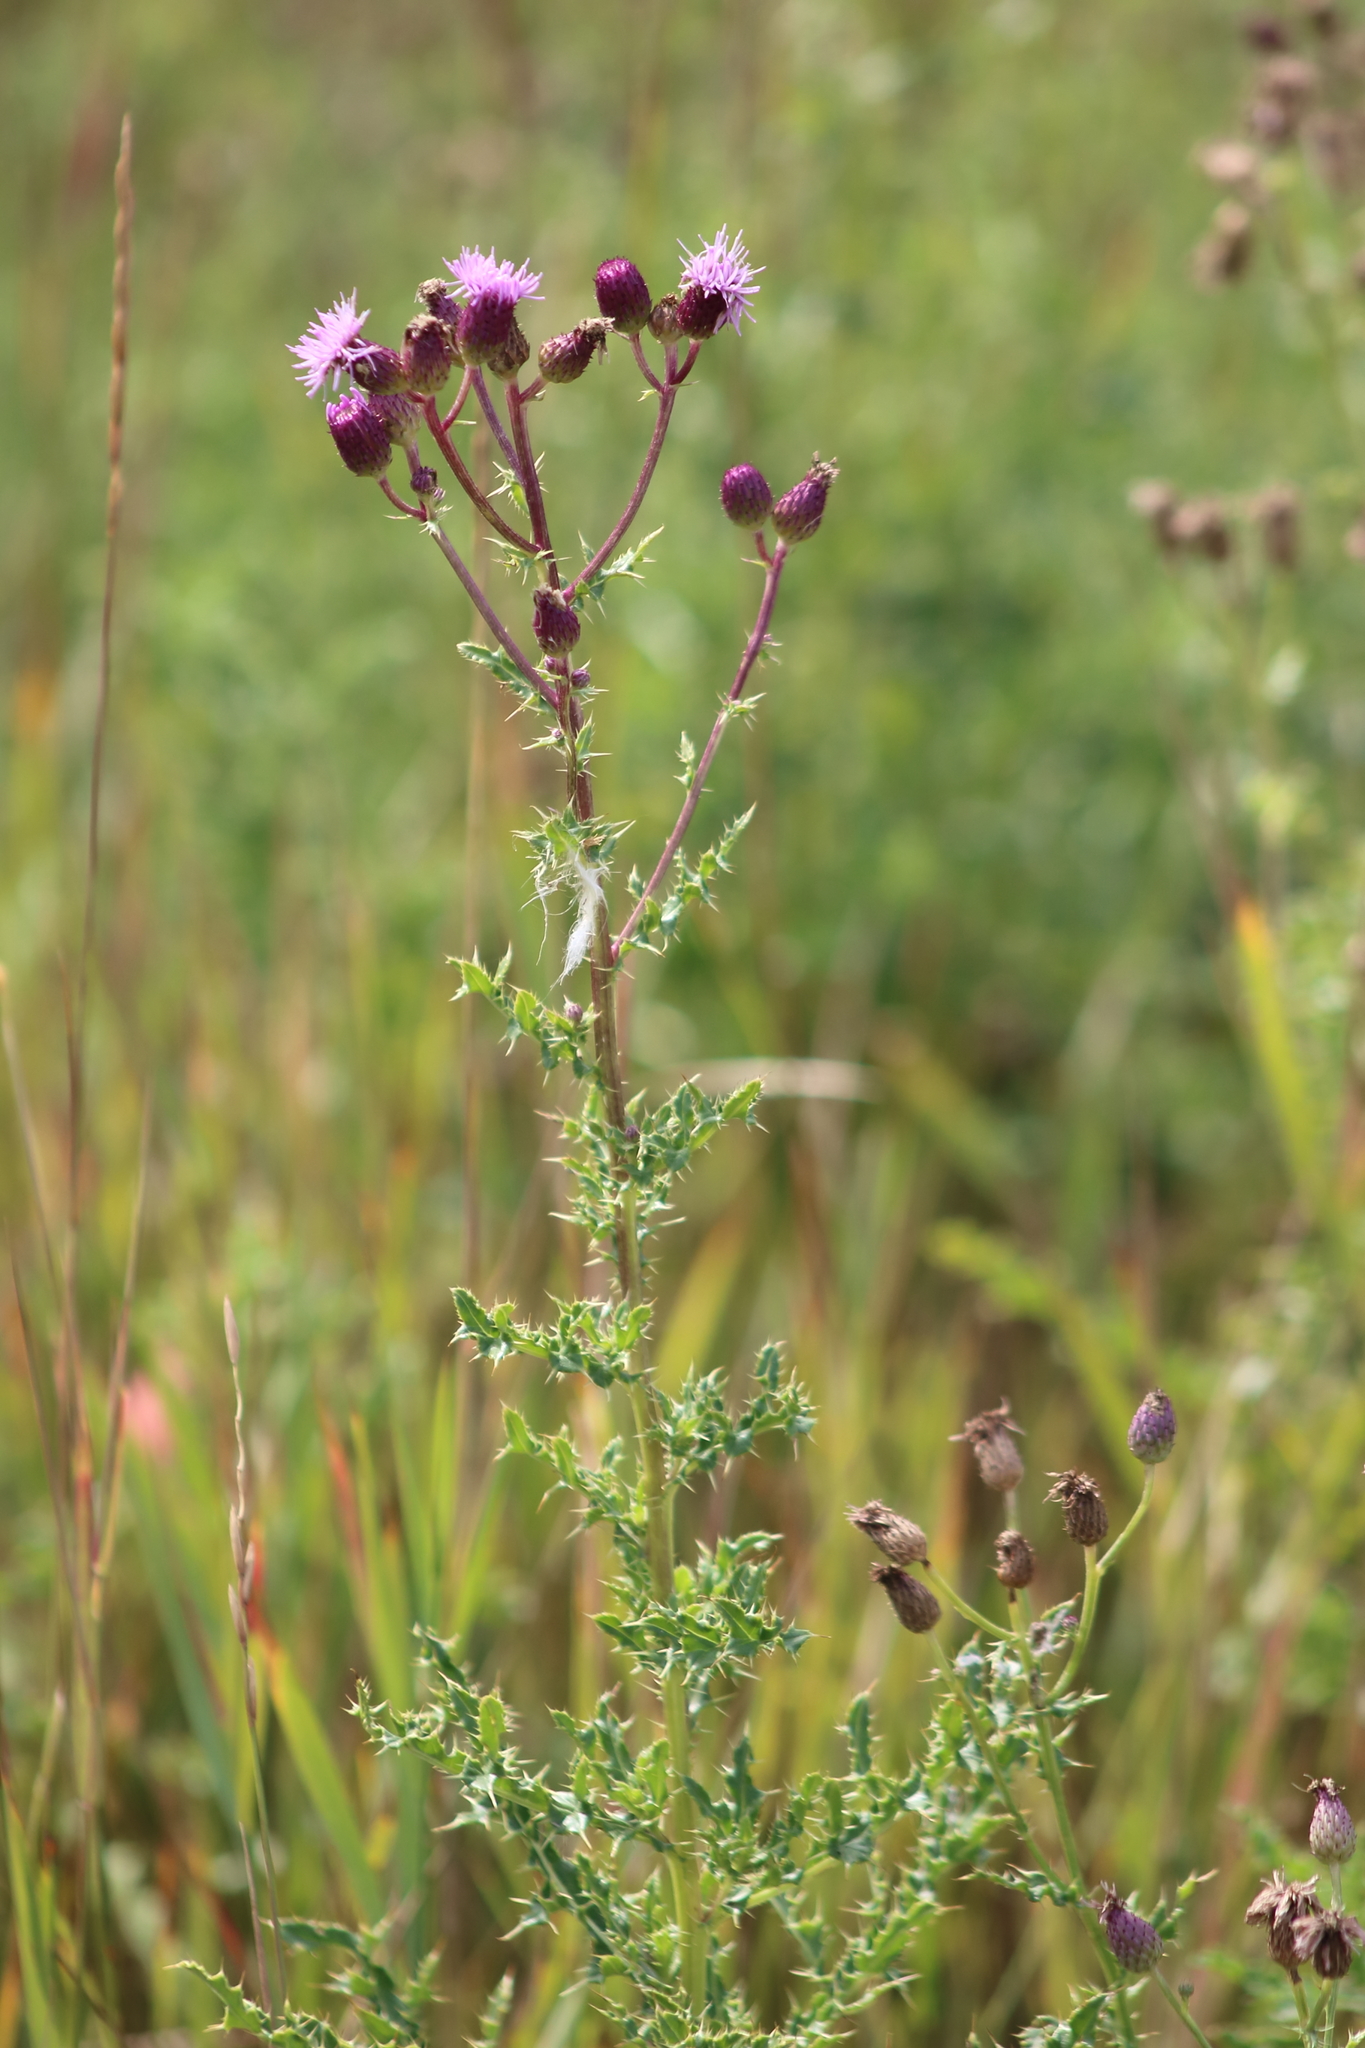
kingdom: Plantae
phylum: Tracheophyta
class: Magnoliopsida
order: Asterales
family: Asteraceae
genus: Cirsium
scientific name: Cirsium arvense
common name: Creeping thistle
